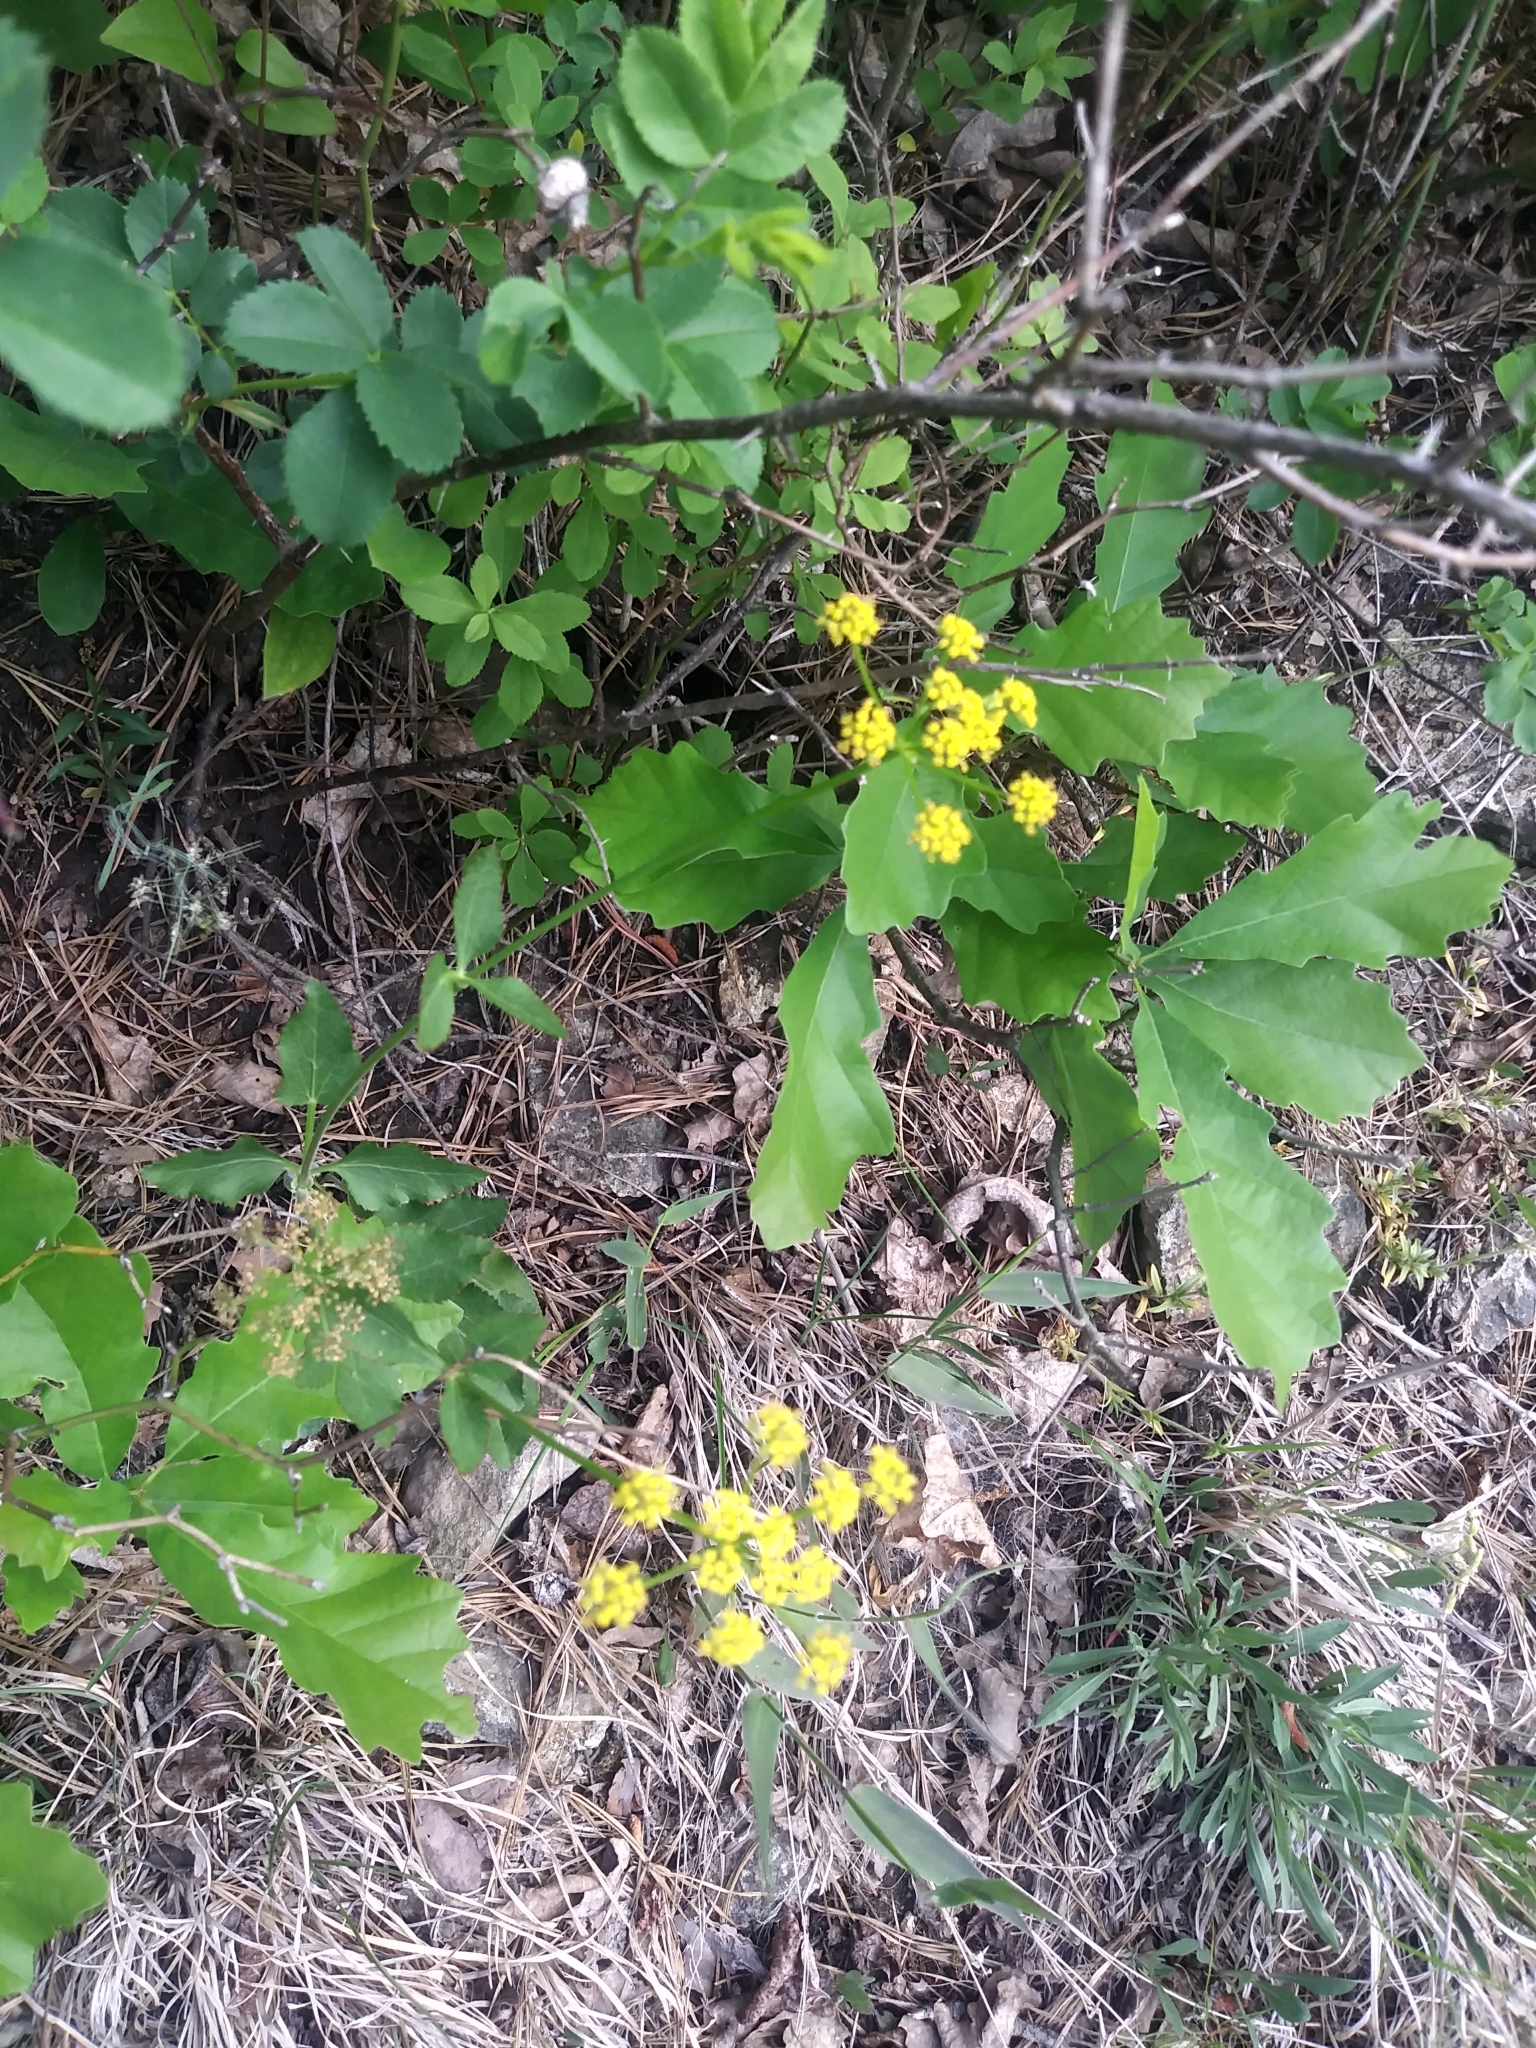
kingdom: Plantae
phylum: Tracheophyta
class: Magnoliopsida
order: Apiales
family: Apiaceae
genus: Zizia
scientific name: Zizia aurea
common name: Golden alexanders
